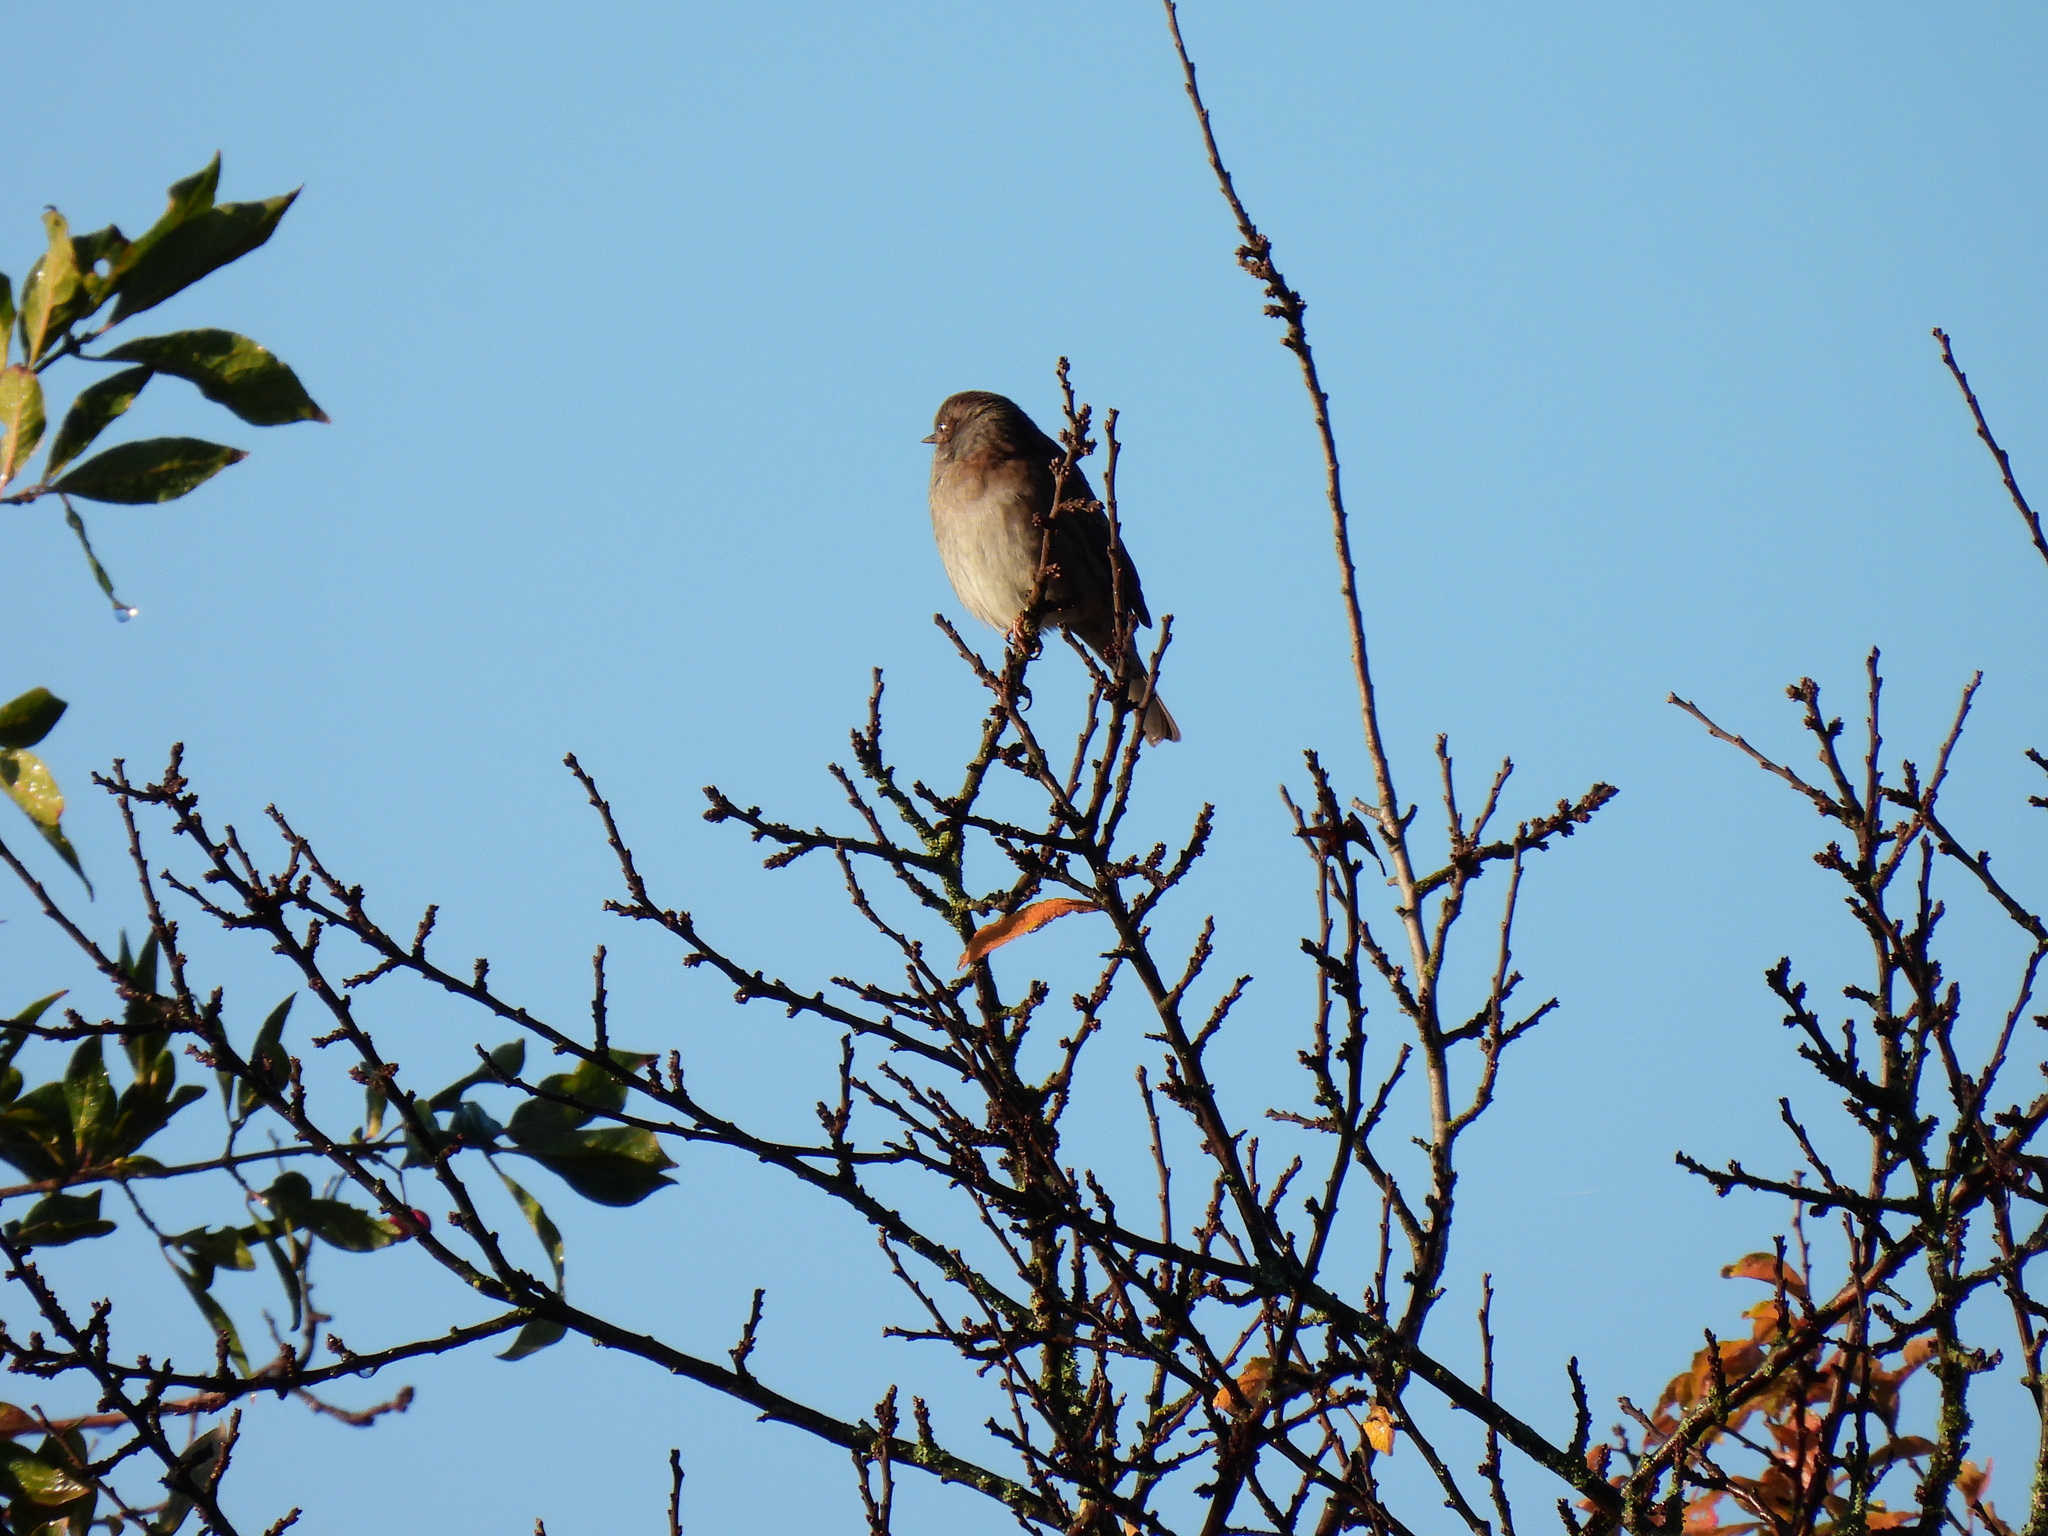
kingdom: Animalia
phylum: Chordata
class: Aves
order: Passeriformes
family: Prunellidae
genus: Prunella
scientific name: Prunella modularis
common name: Dunnock
